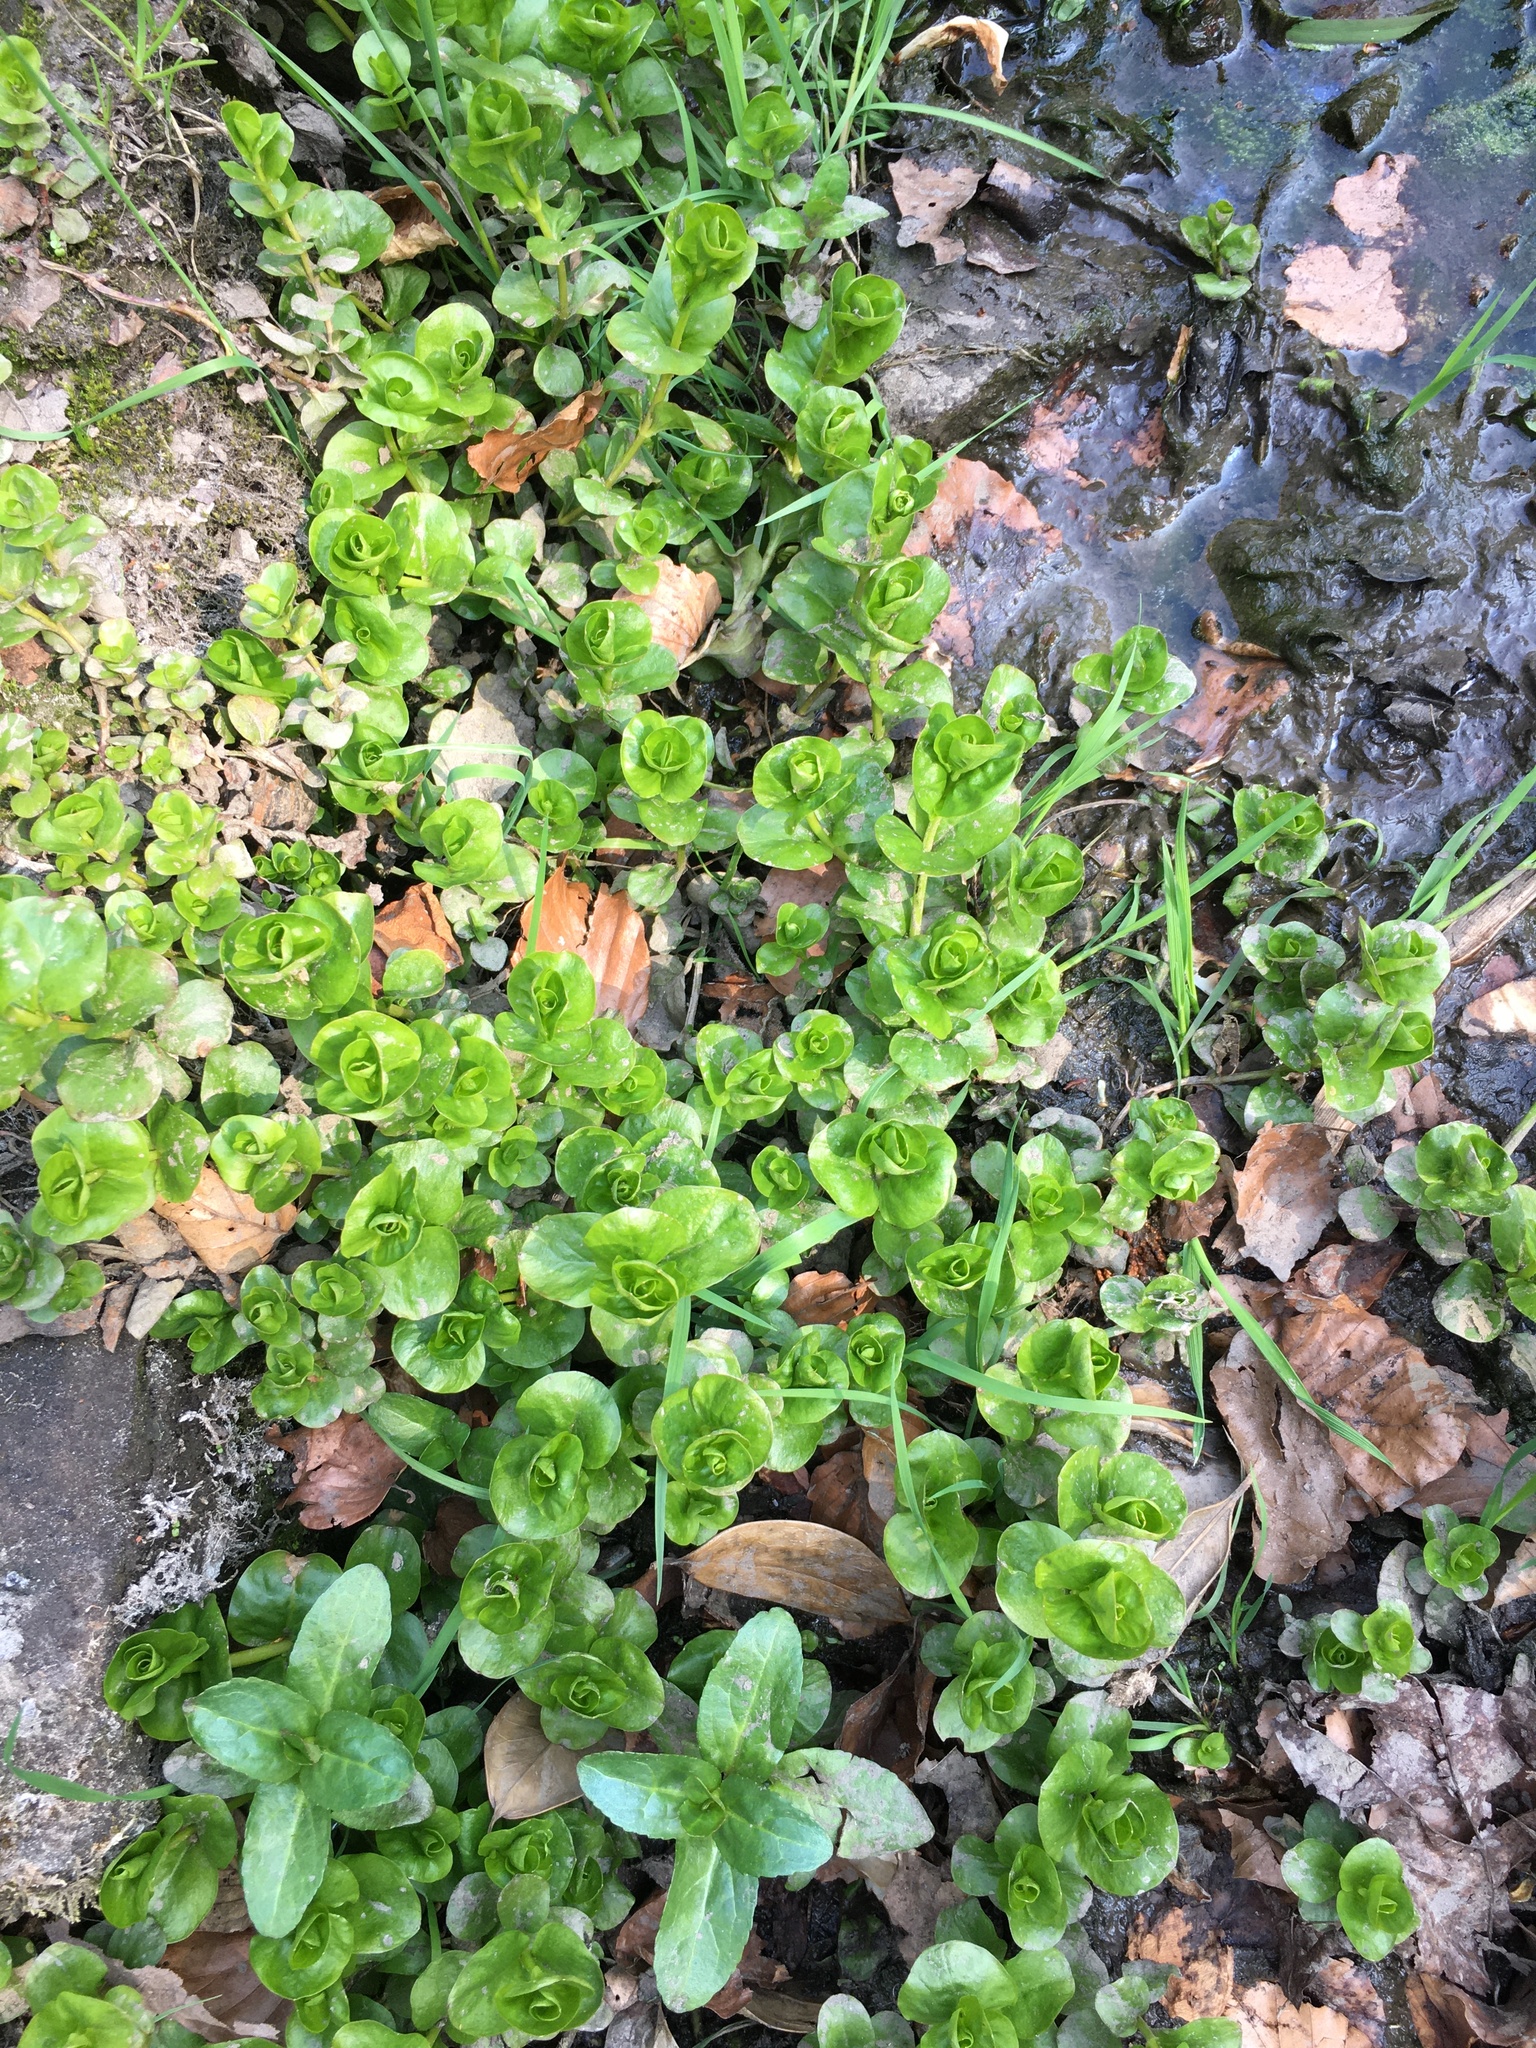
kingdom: Plantae
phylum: Tracheophyta
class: Magnoliopsida
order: Ericales
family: Primulaceae
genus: Lysimachia
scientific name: Lysimachia nummularia
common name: Moneywort
